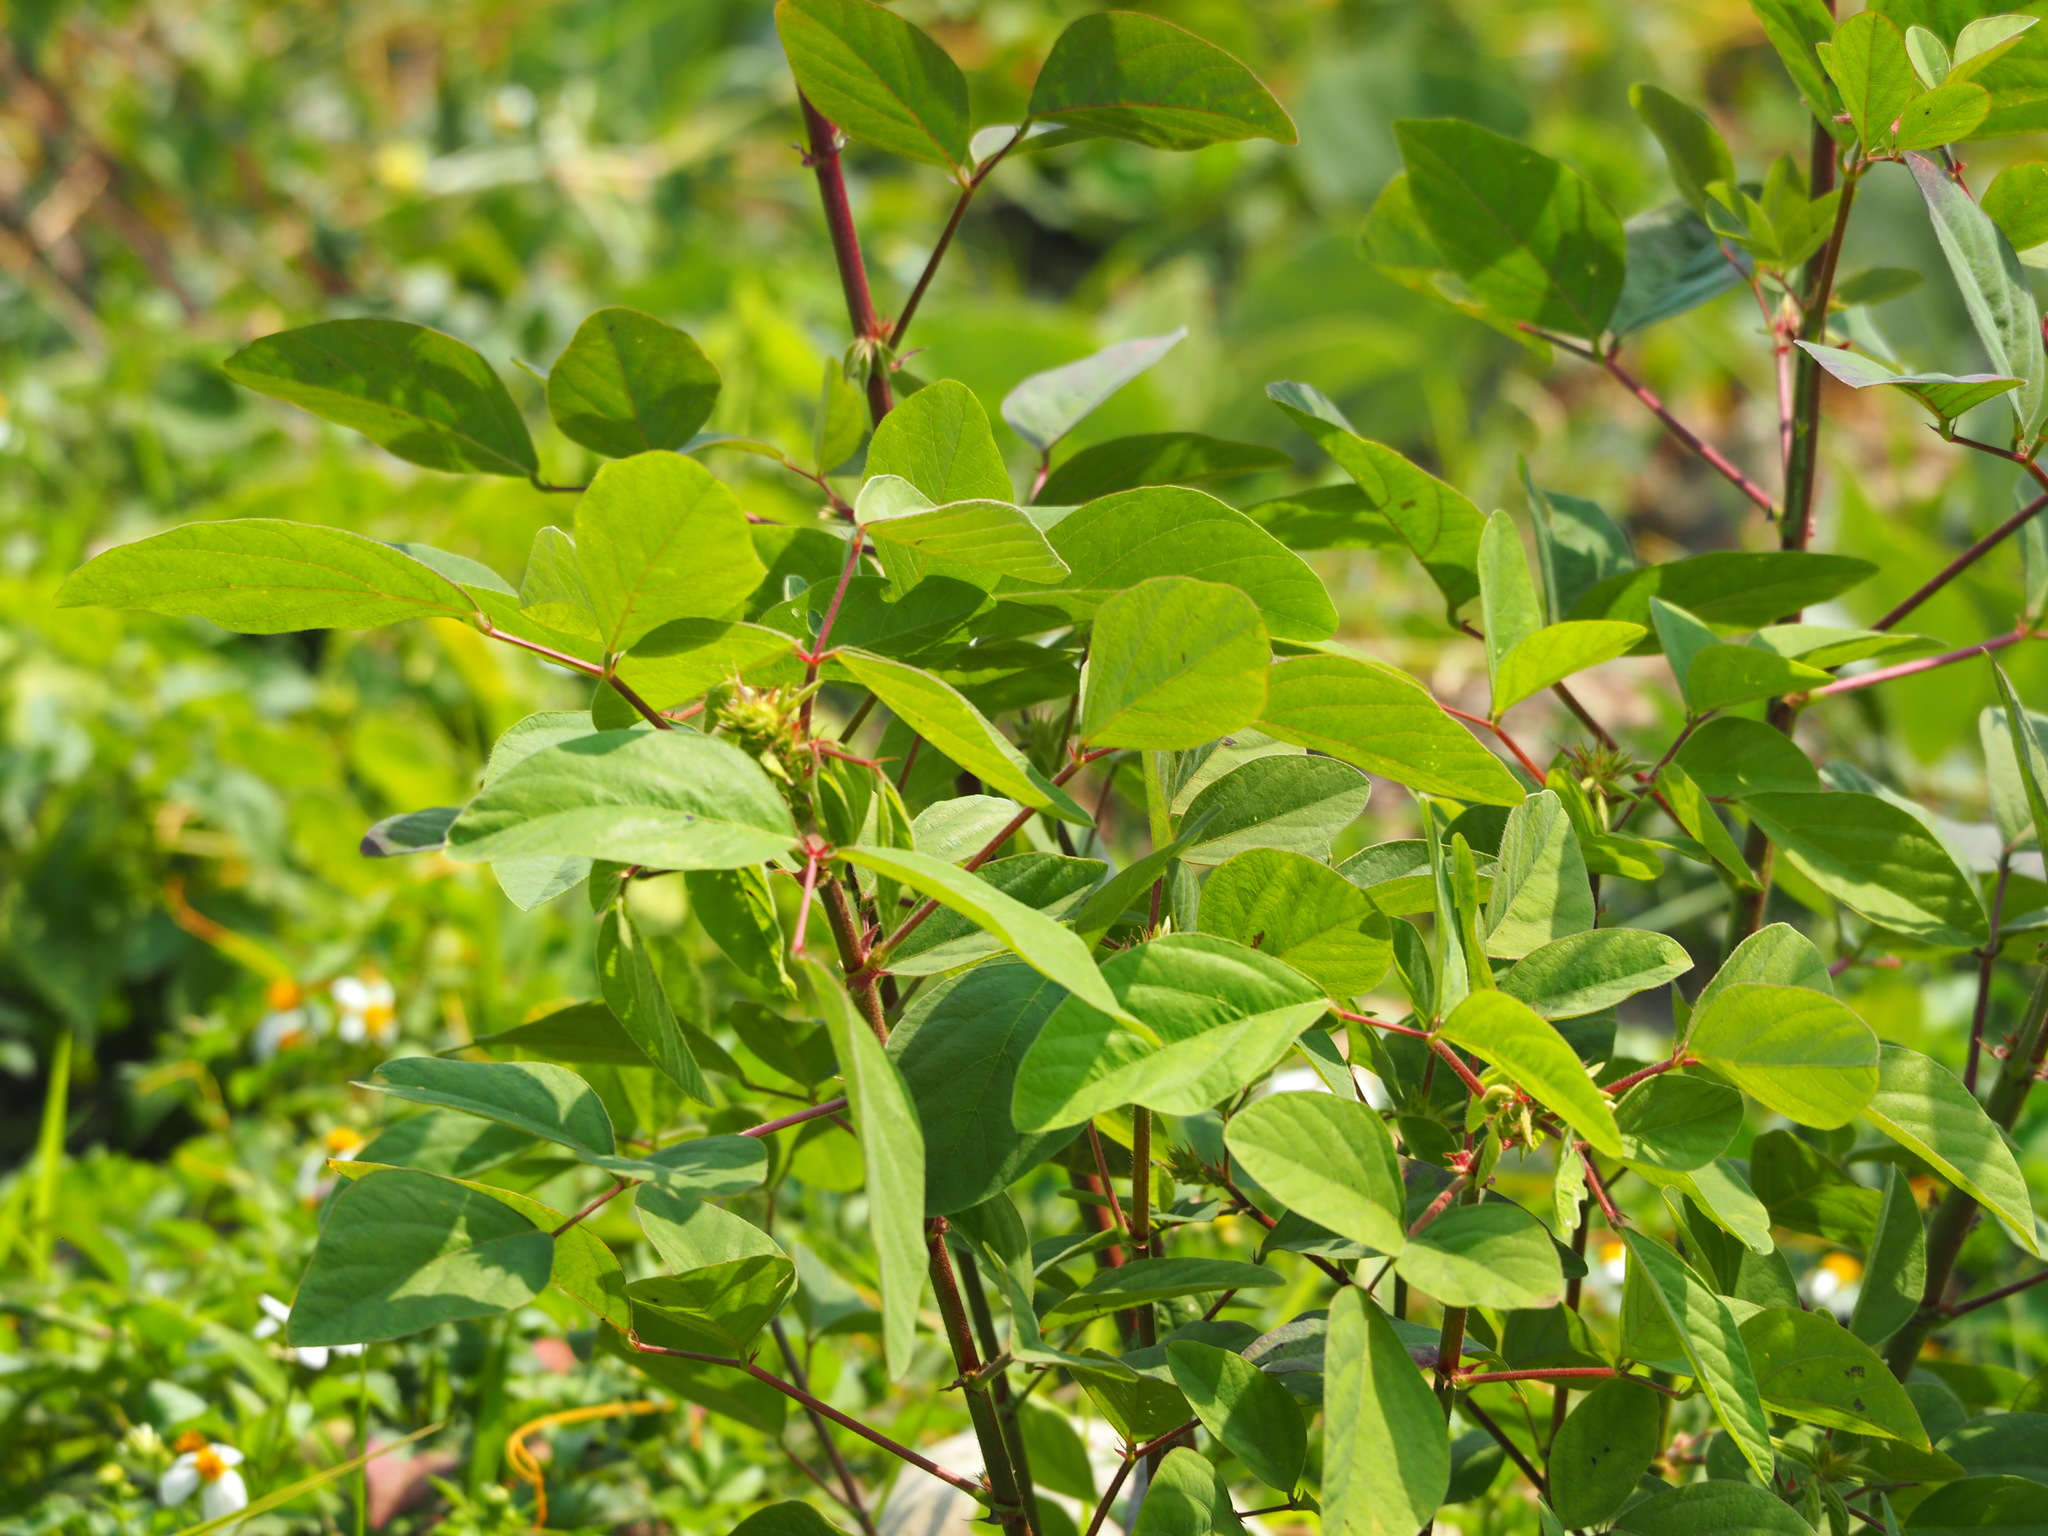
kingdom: Plantae
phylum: Tracheophyta
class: Magnoliopsida
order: Fabales
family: Fabaceae
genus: Desmodium
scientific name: Desmodium tortuosum
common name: Dixie ticktrefoil
